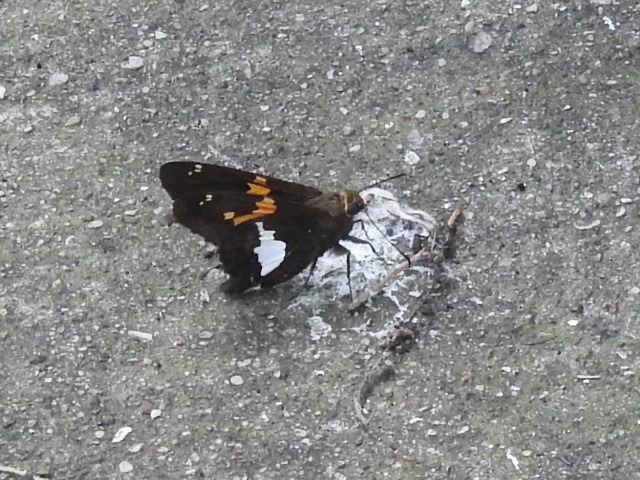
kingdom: Animalia
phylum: Arthropoda
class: Insecta
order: Lepidoptera
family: Hesperiidae
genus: Epargyreus
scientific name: Epargyreus clarus
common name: Silver-spotted skipper
